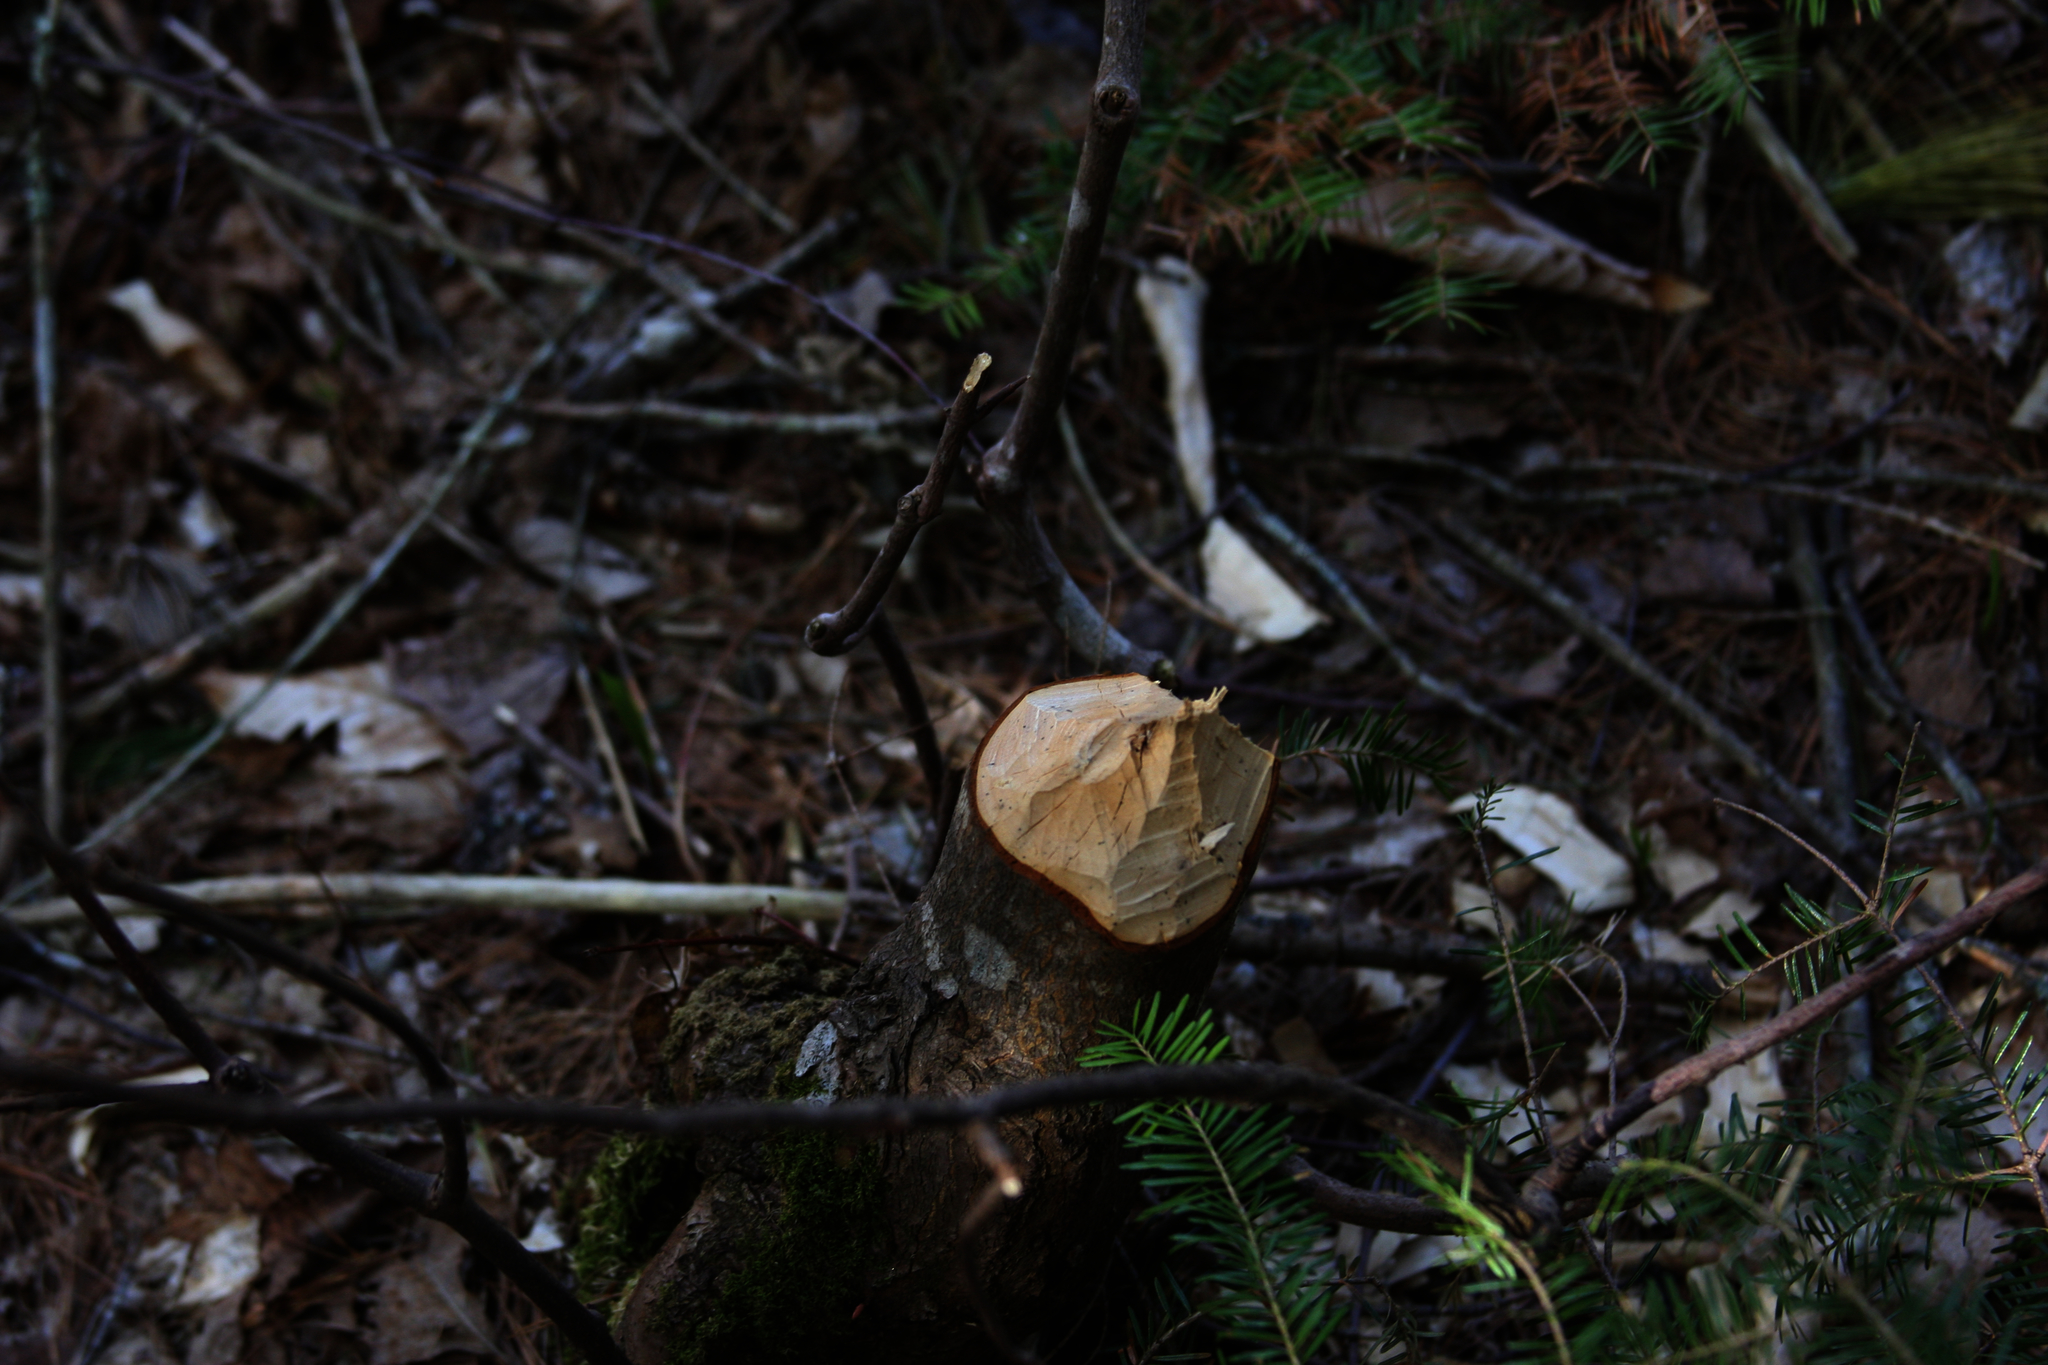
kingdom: Animalia
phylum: Chordata
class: Mammalia
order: Rodentia
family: Castoridae
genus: Castor
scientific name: Castor canadensis
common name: American beaver
